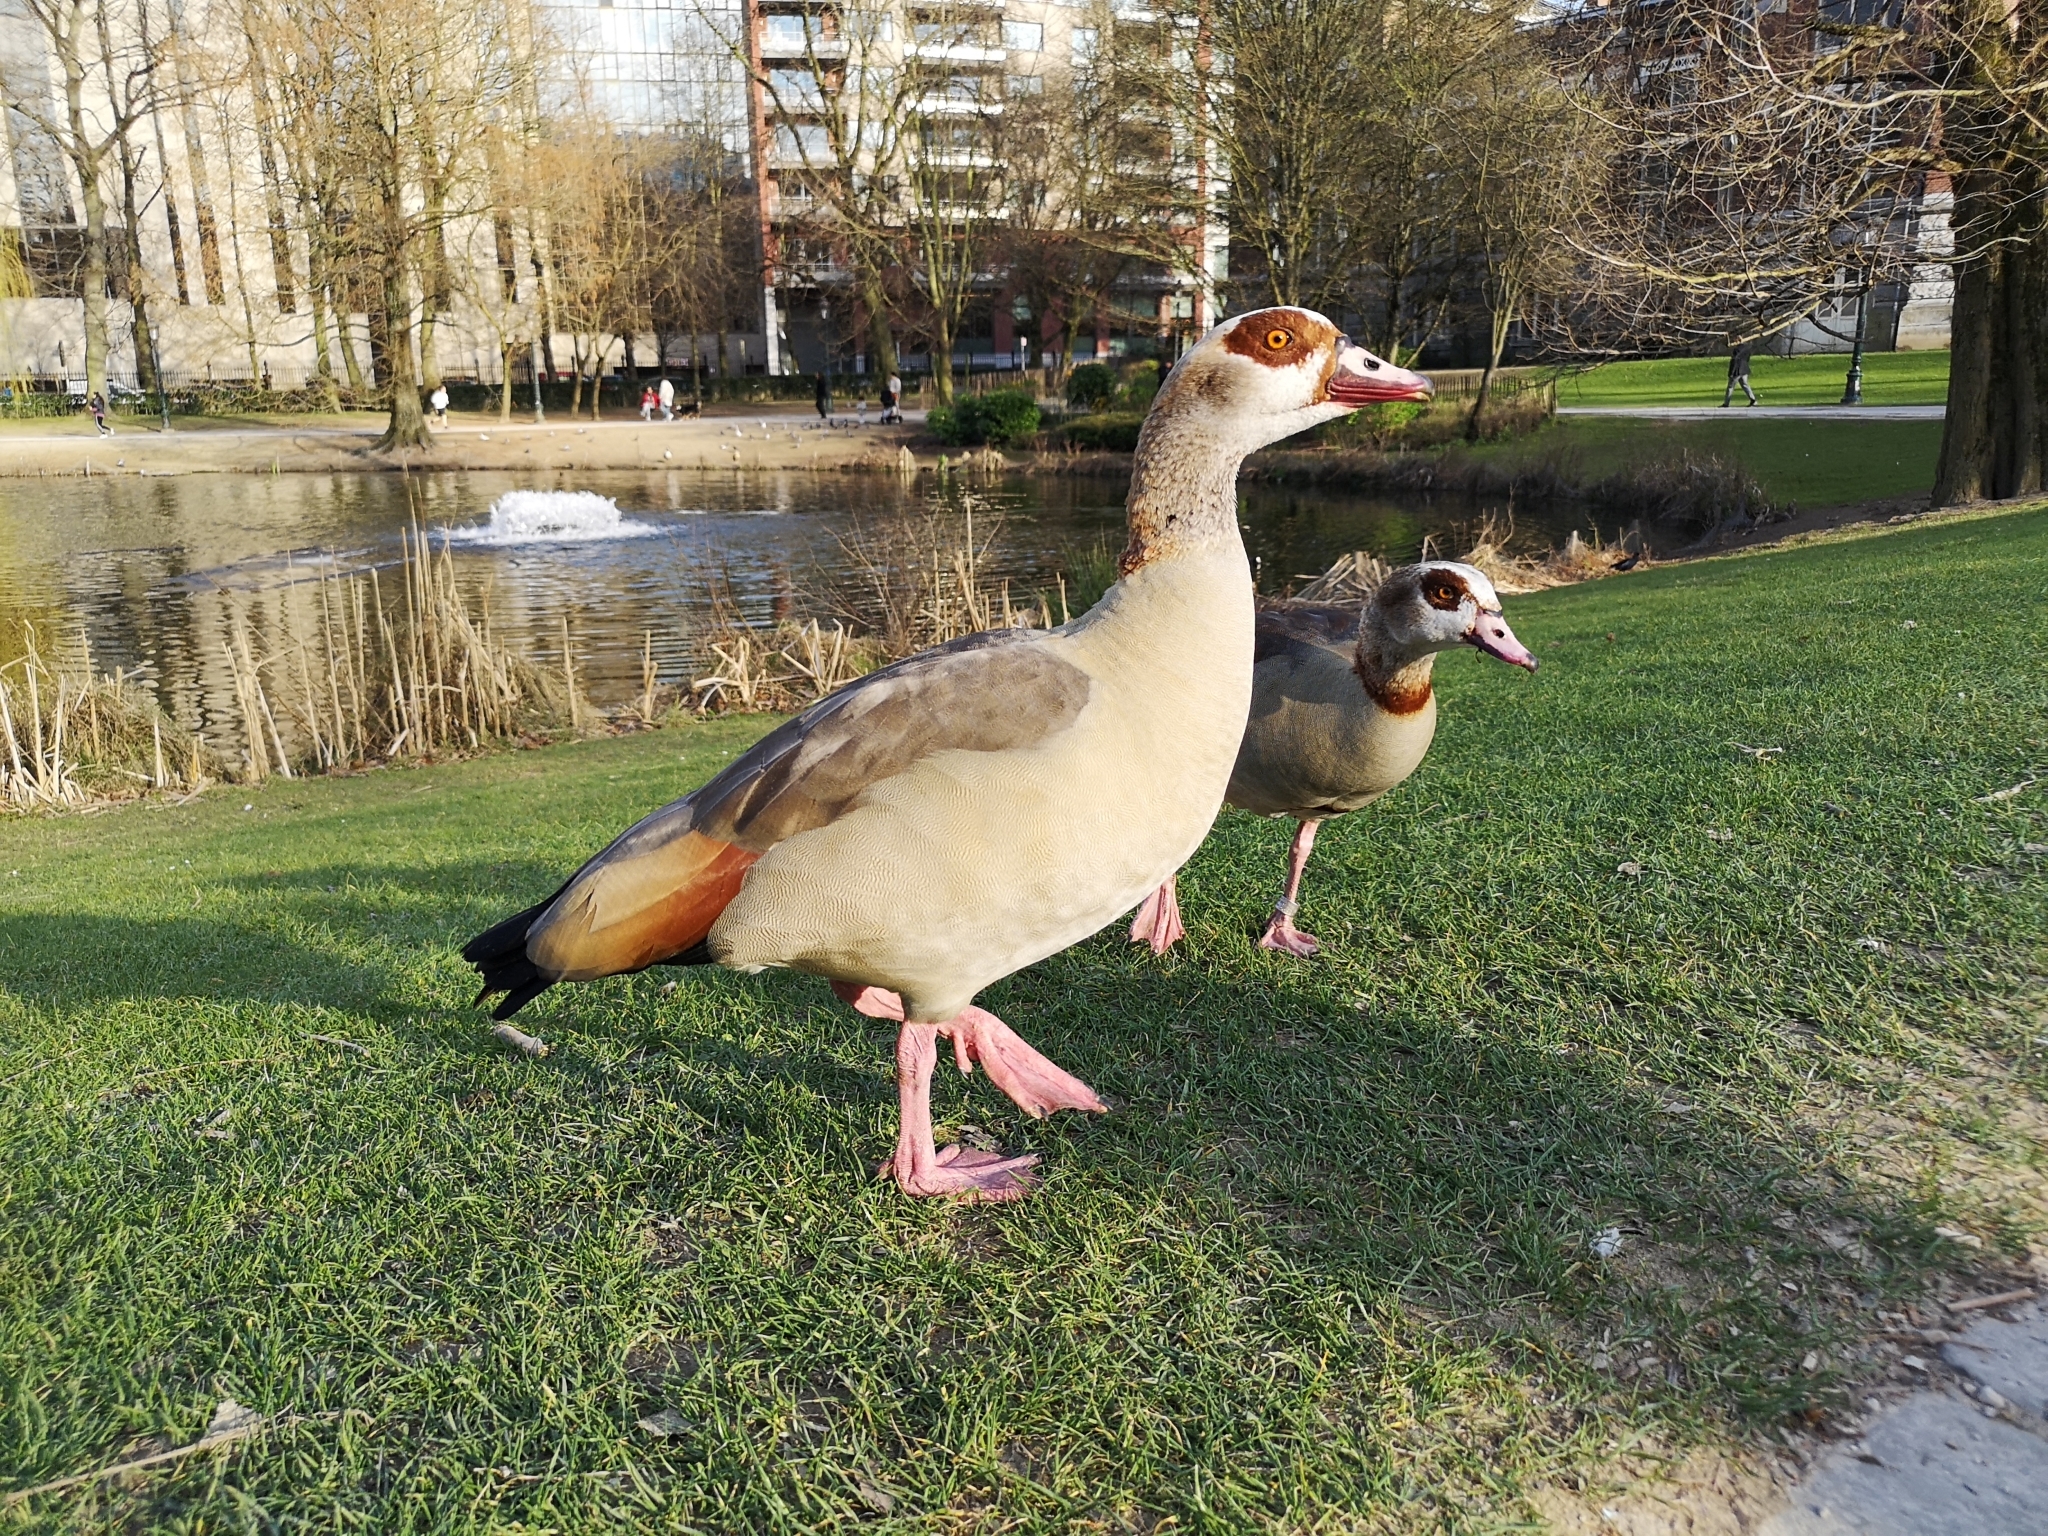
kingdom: Animalia
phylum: Chordata
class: Aves
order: Anseriformes
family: Anatidae
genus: Alopochen
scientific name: Alopochen aegyptiaca
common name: Egyptian goose
